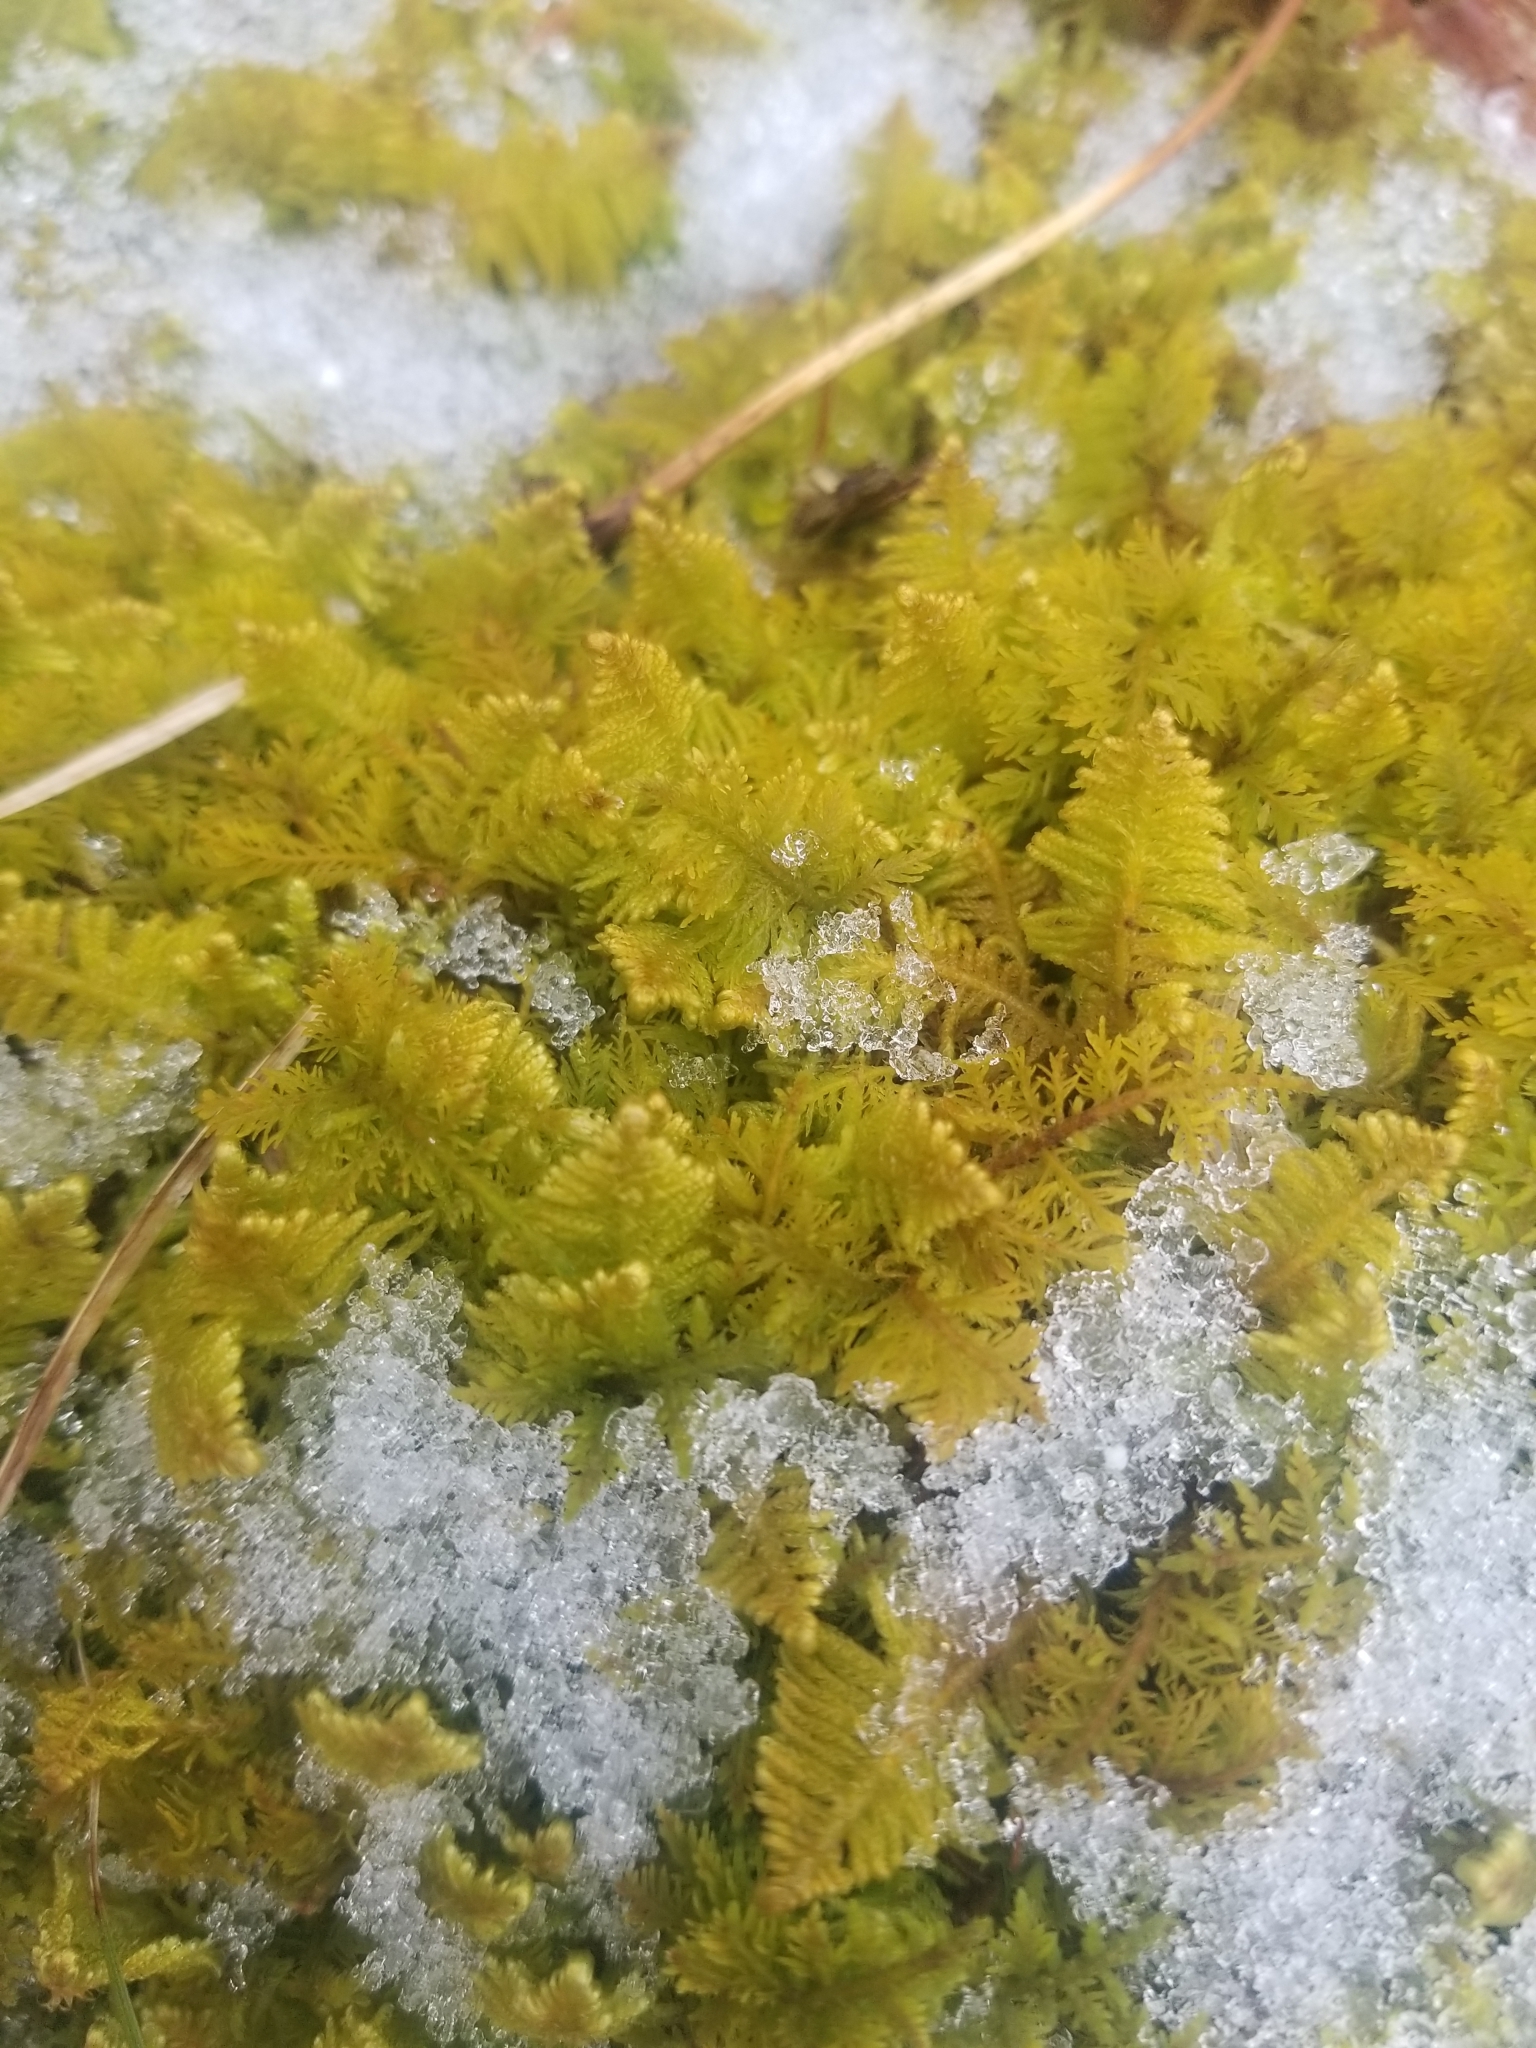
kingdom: Plantae
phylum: Bryophyta
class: Bryopsida
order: Hypnales
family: Pylaisiaceae
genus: Ptilium
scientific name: Ptilium crista-castrensis
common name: Knight's plume moss
